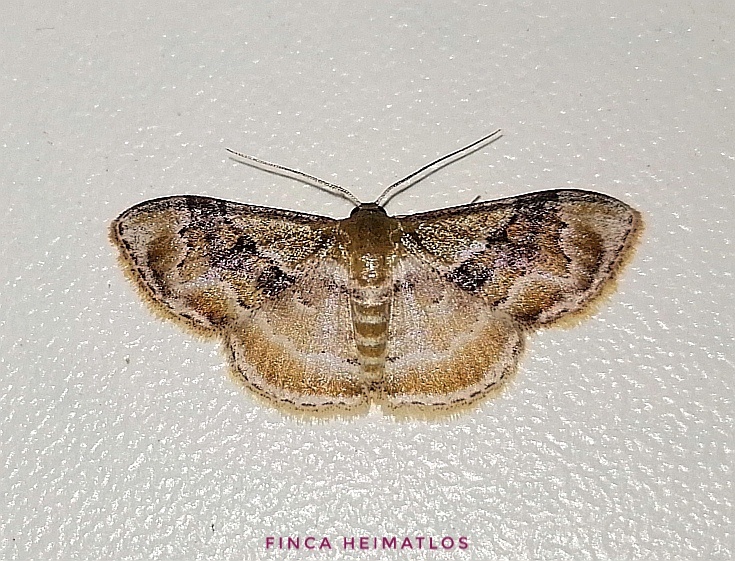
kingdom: Animalia
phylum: Arthropoda
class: Insecta
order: Lepidoptera
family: Geometridae
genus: Leptostales
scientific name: Leptostales adela
